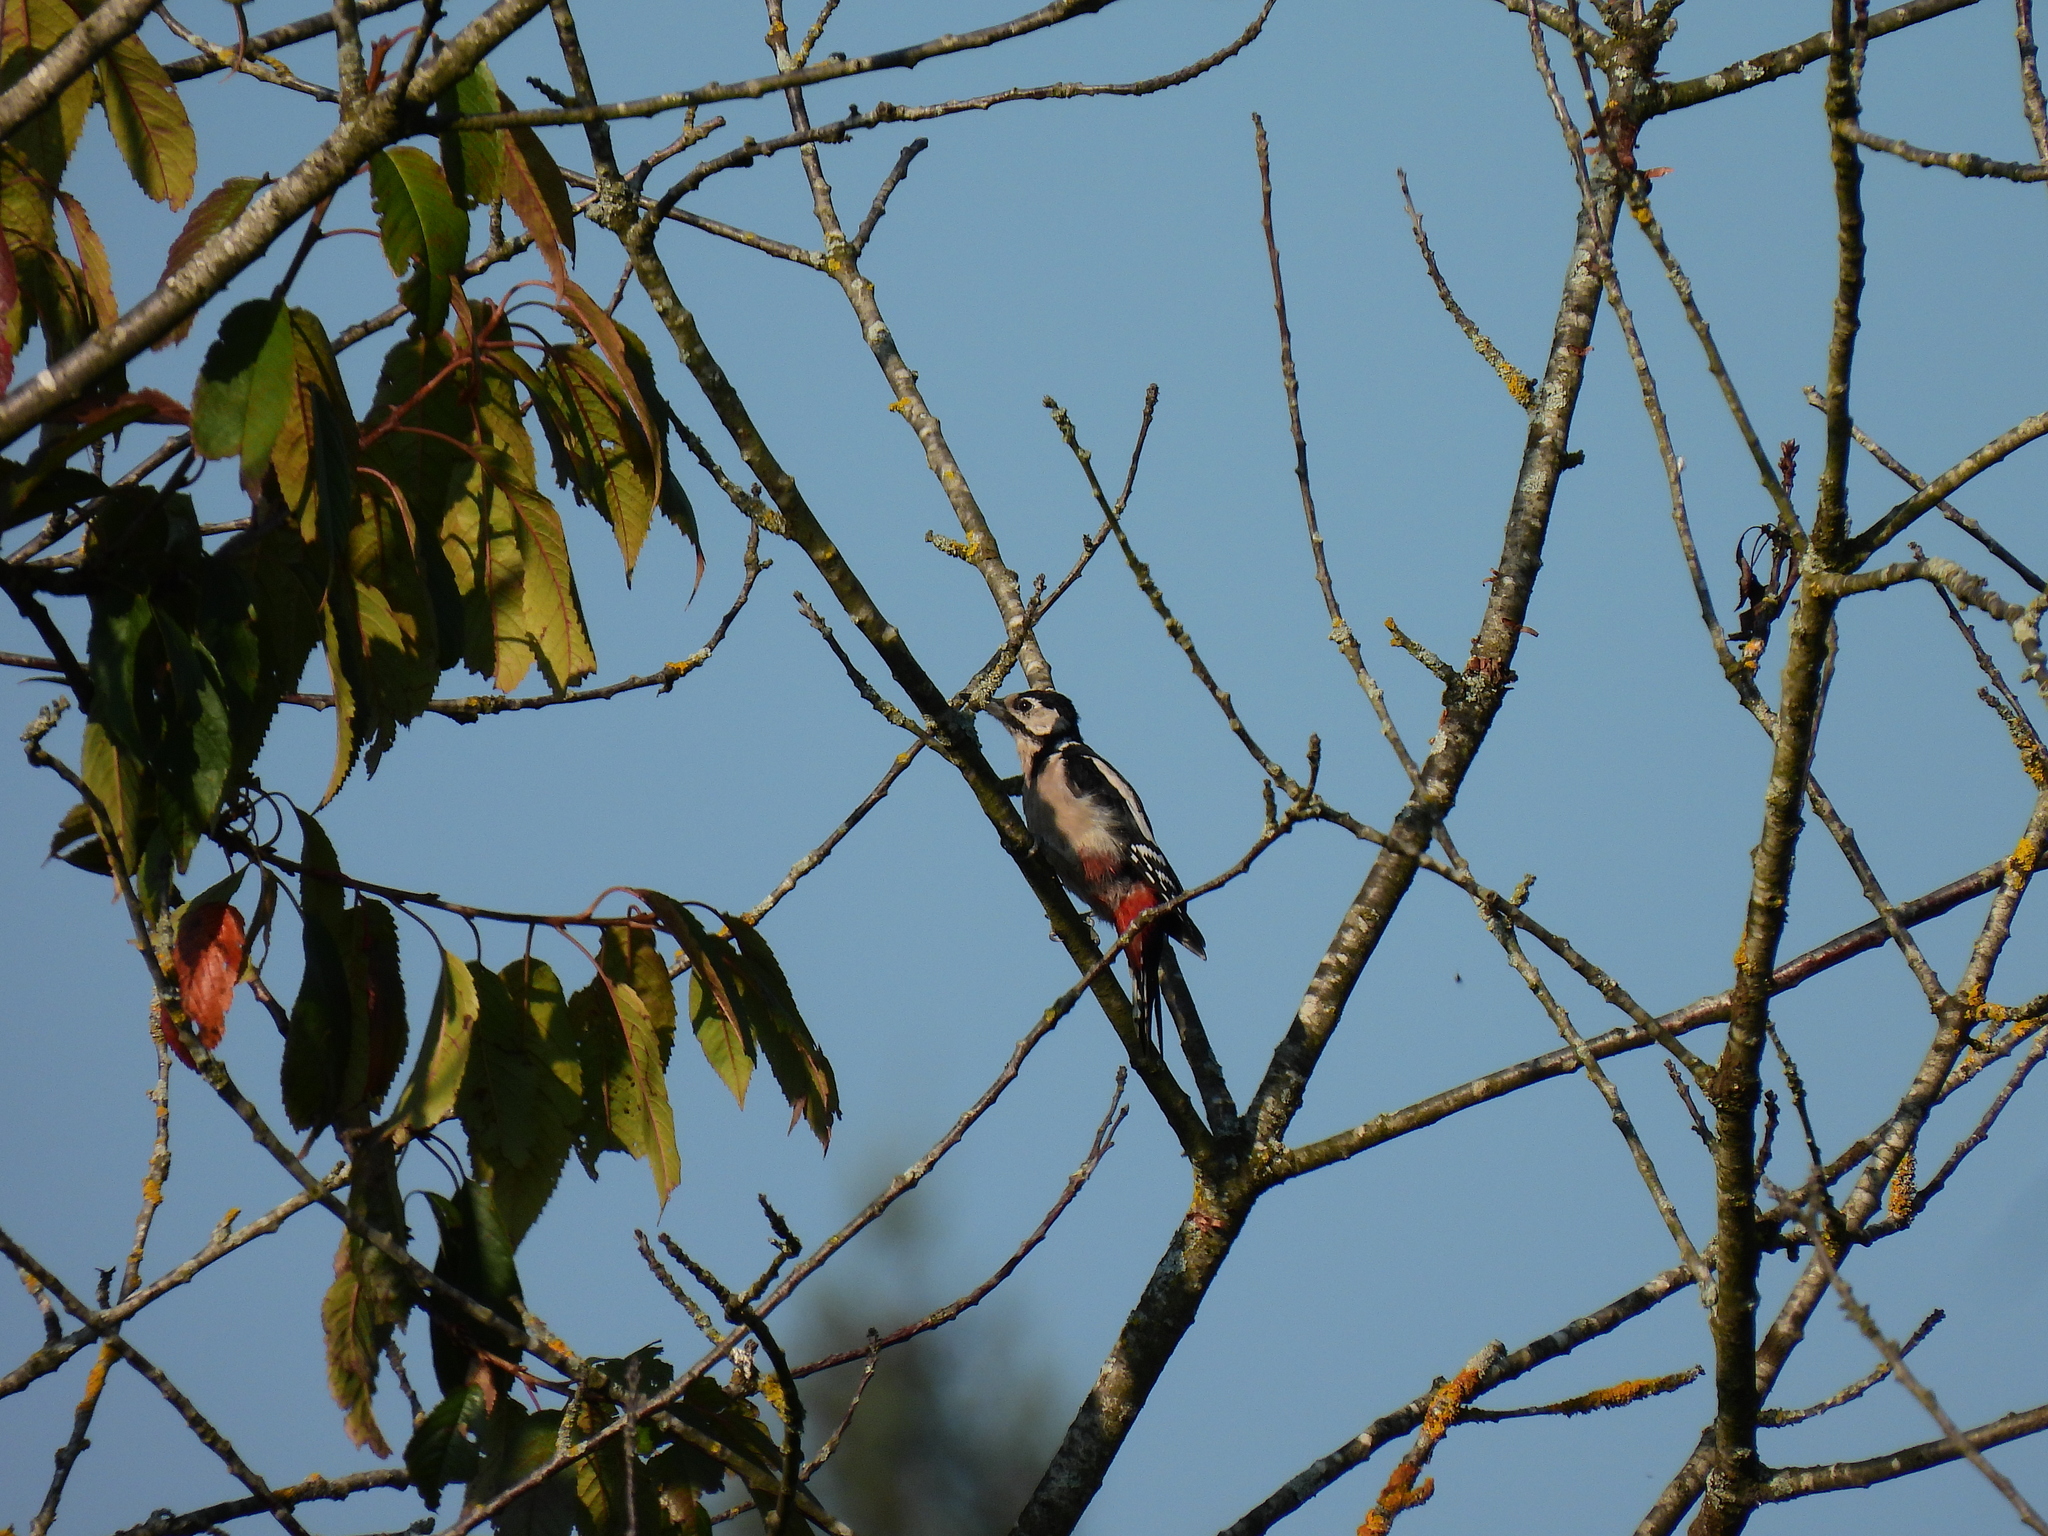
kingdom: Animalia
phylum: Chordata
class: Aves
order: Piciformes
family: Picidae
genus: Dendrocopos
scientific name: Dendrocopos major
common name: Great spotted woodpecker
